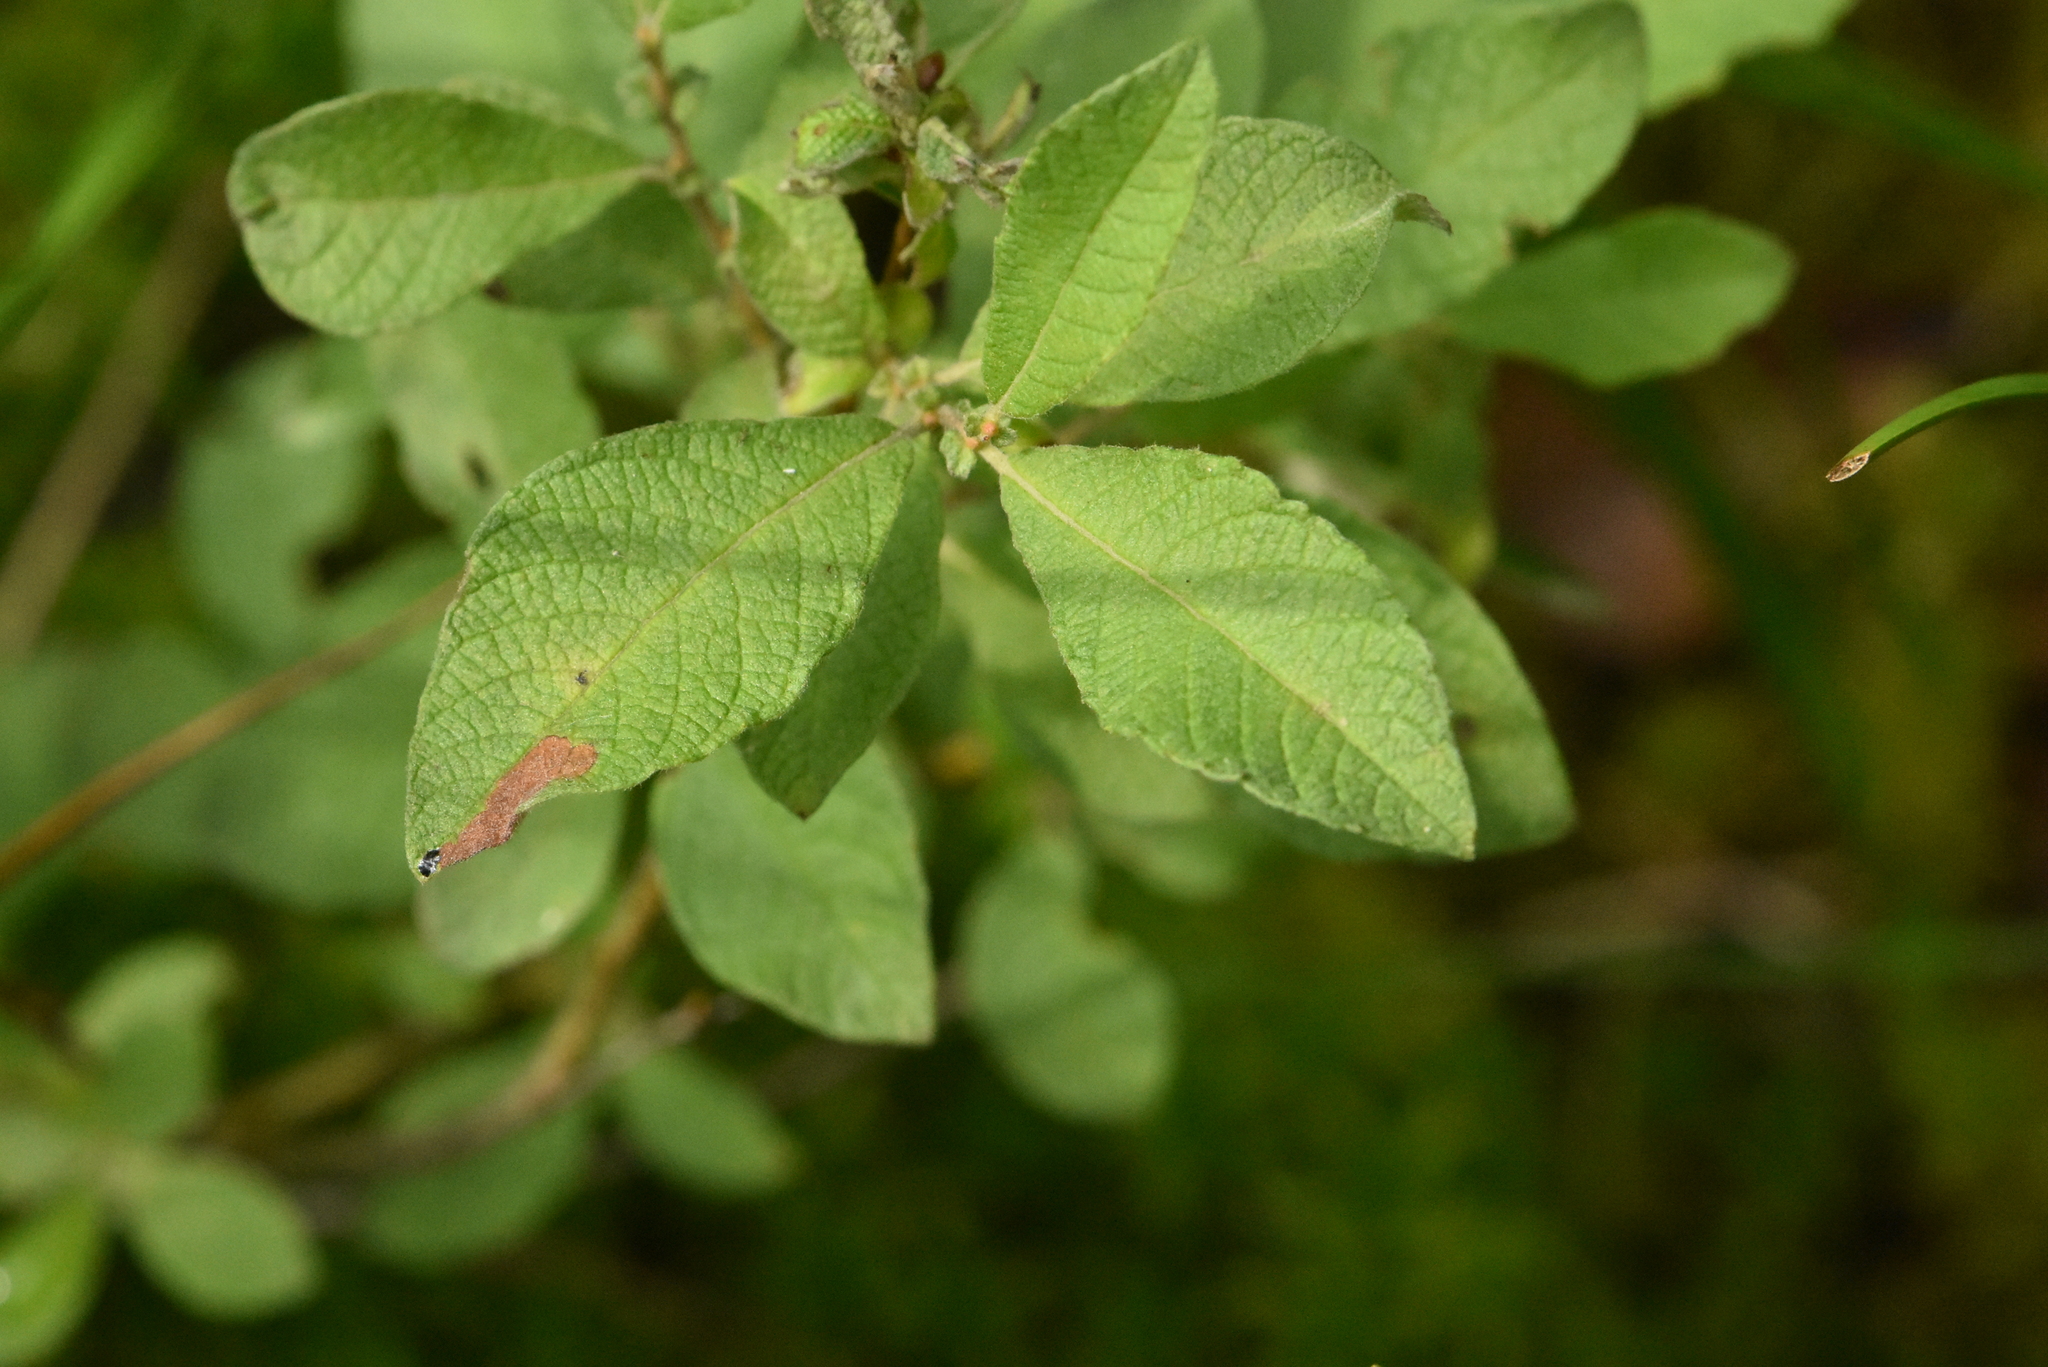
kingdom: Plantae
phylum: Tracheophyta
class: Magnoliopsida
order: Malpighiales
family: Salicaceae
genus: Salix
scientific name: Salix aurita
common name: Eared willow
